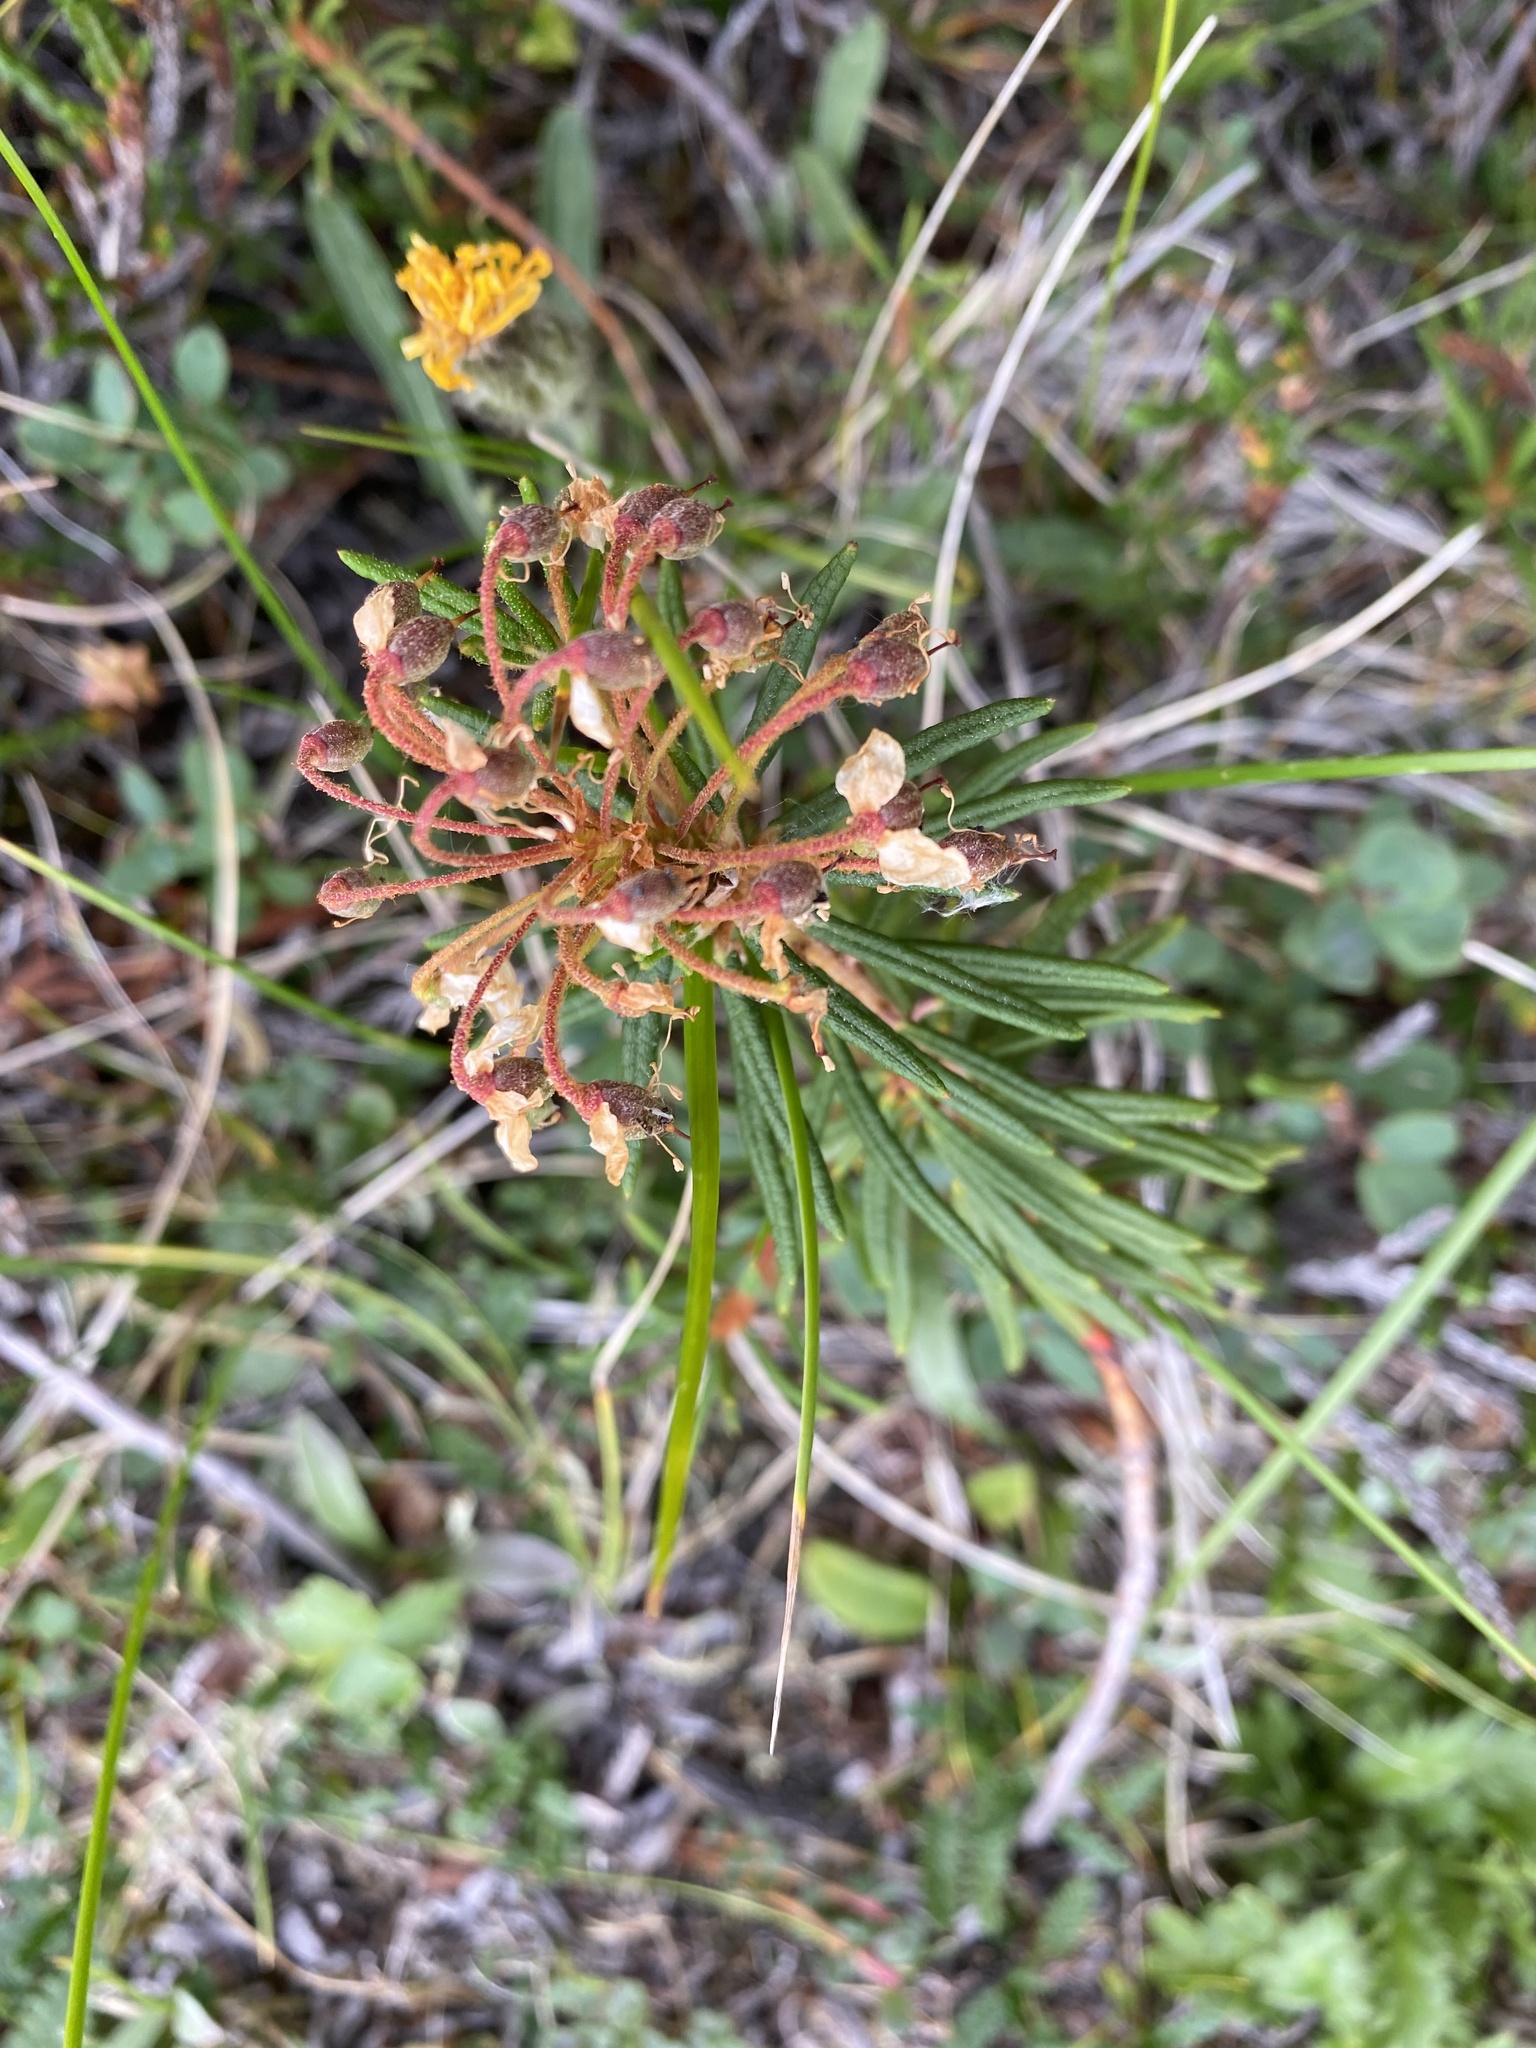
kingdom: Plantae
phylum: Tracheophyta
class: Magnoliopsida
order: Ericales
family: Ericaceae
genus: Rhododendron
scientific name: Rhododendron tomentosum
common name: Marsh labrador tea
